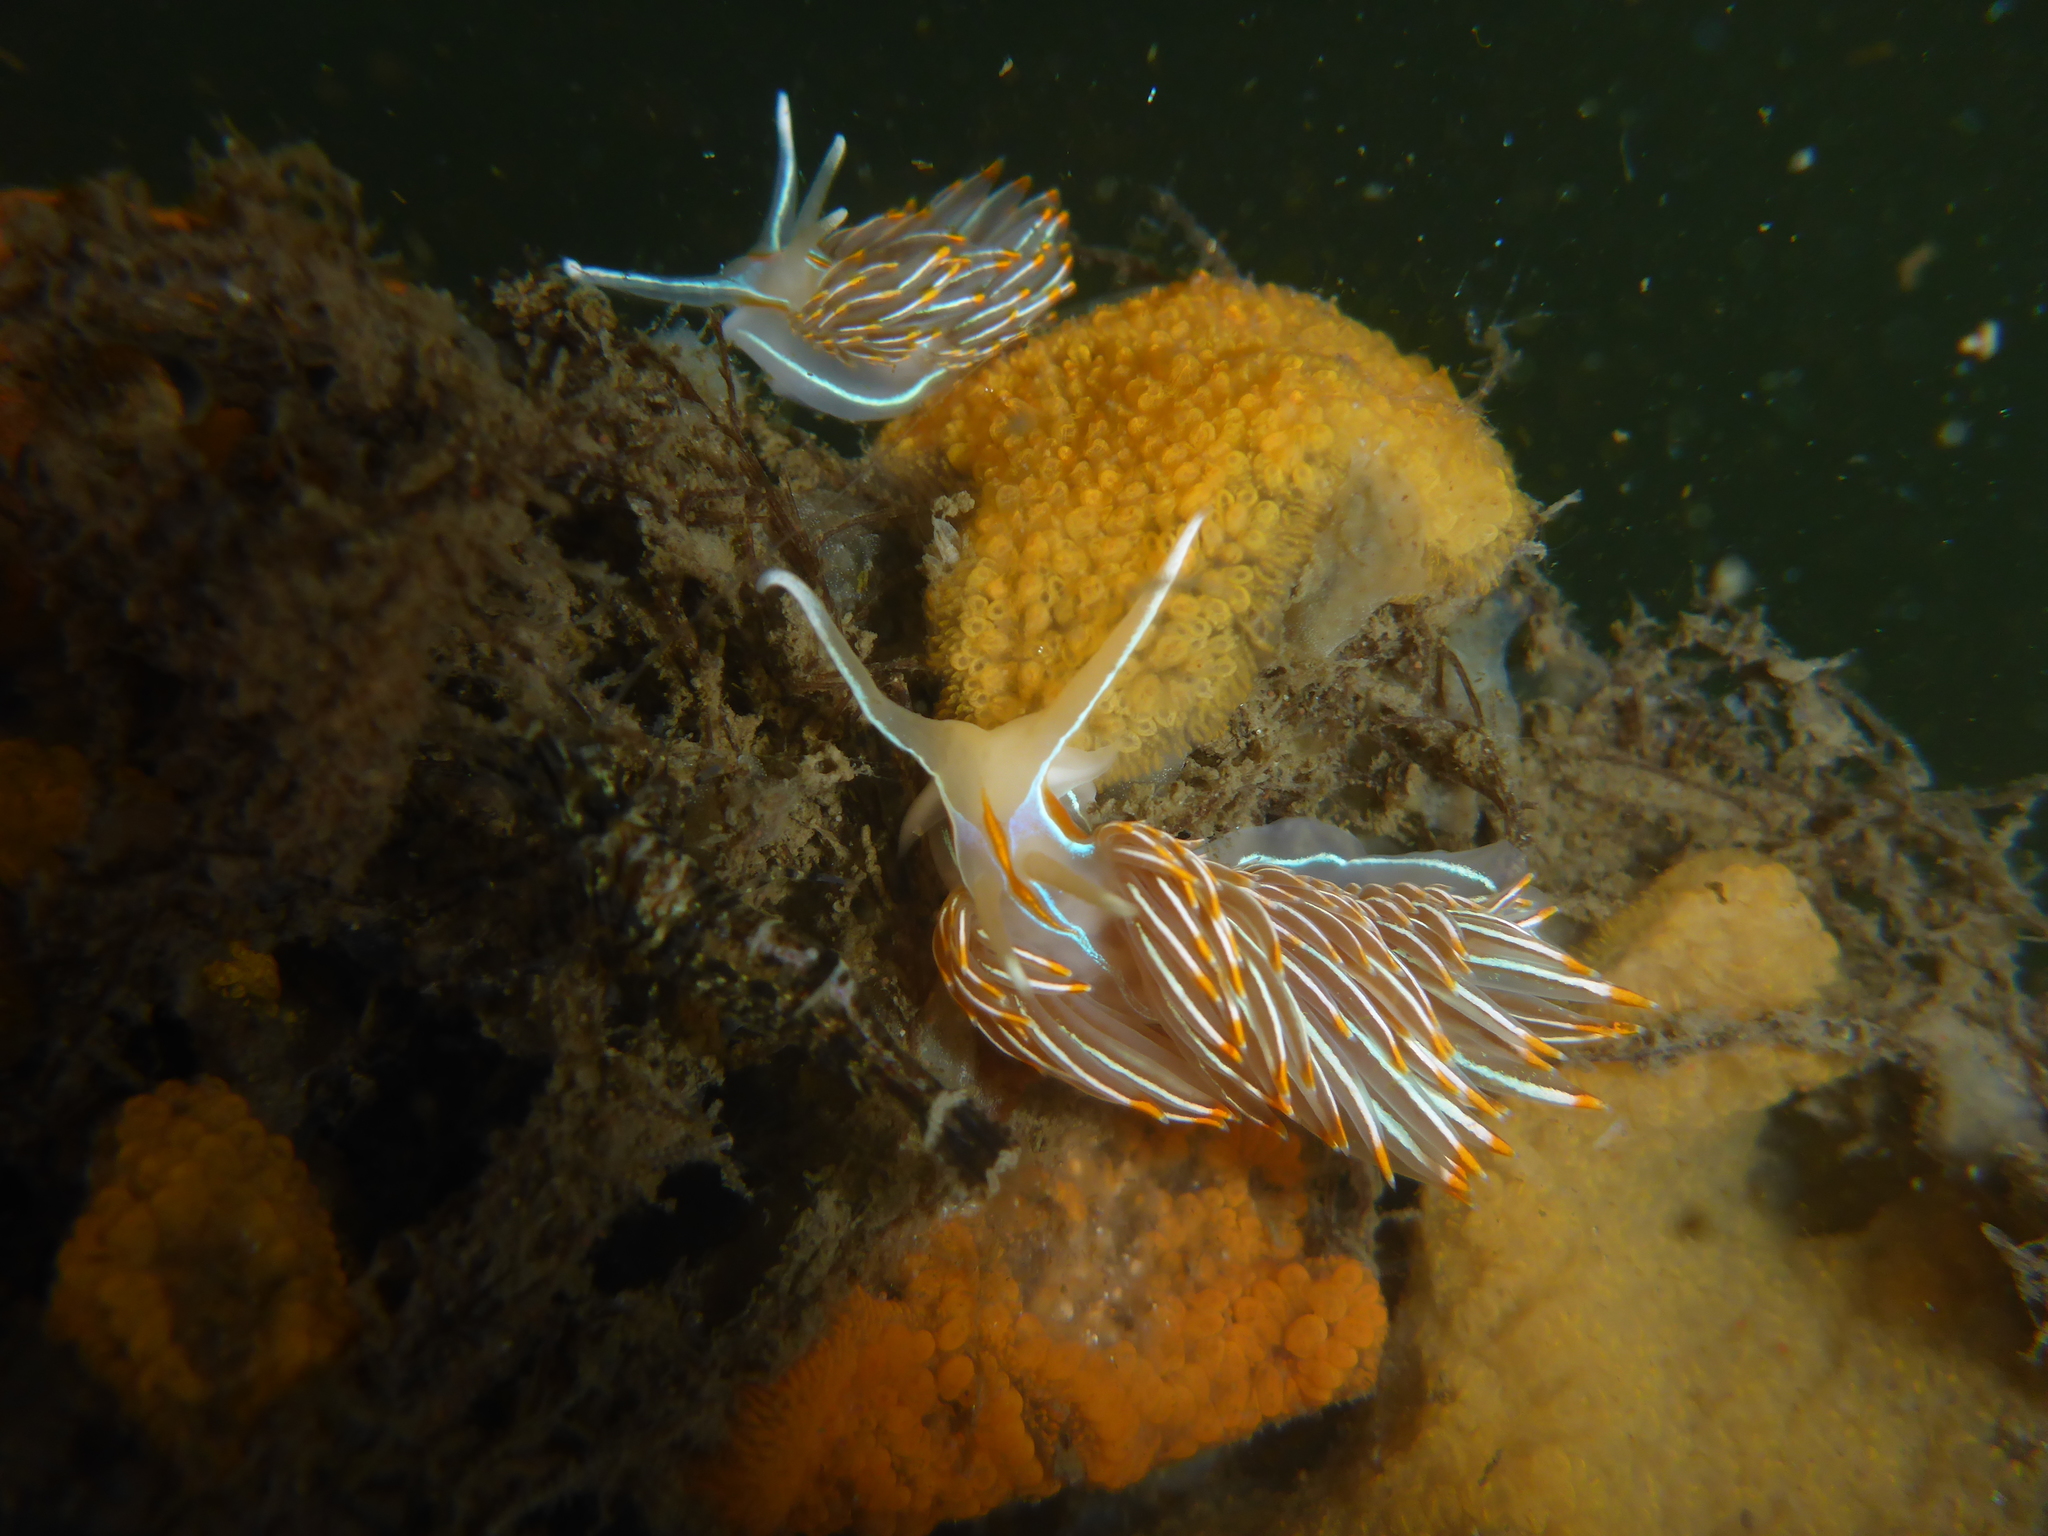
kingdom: Animalia
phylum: Mollusca
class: Gastropoda
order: Nudibranchia
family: Myrrhinidae
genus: Hermissenda
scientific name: Hermissenda crassicornis
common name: Hermissenda
